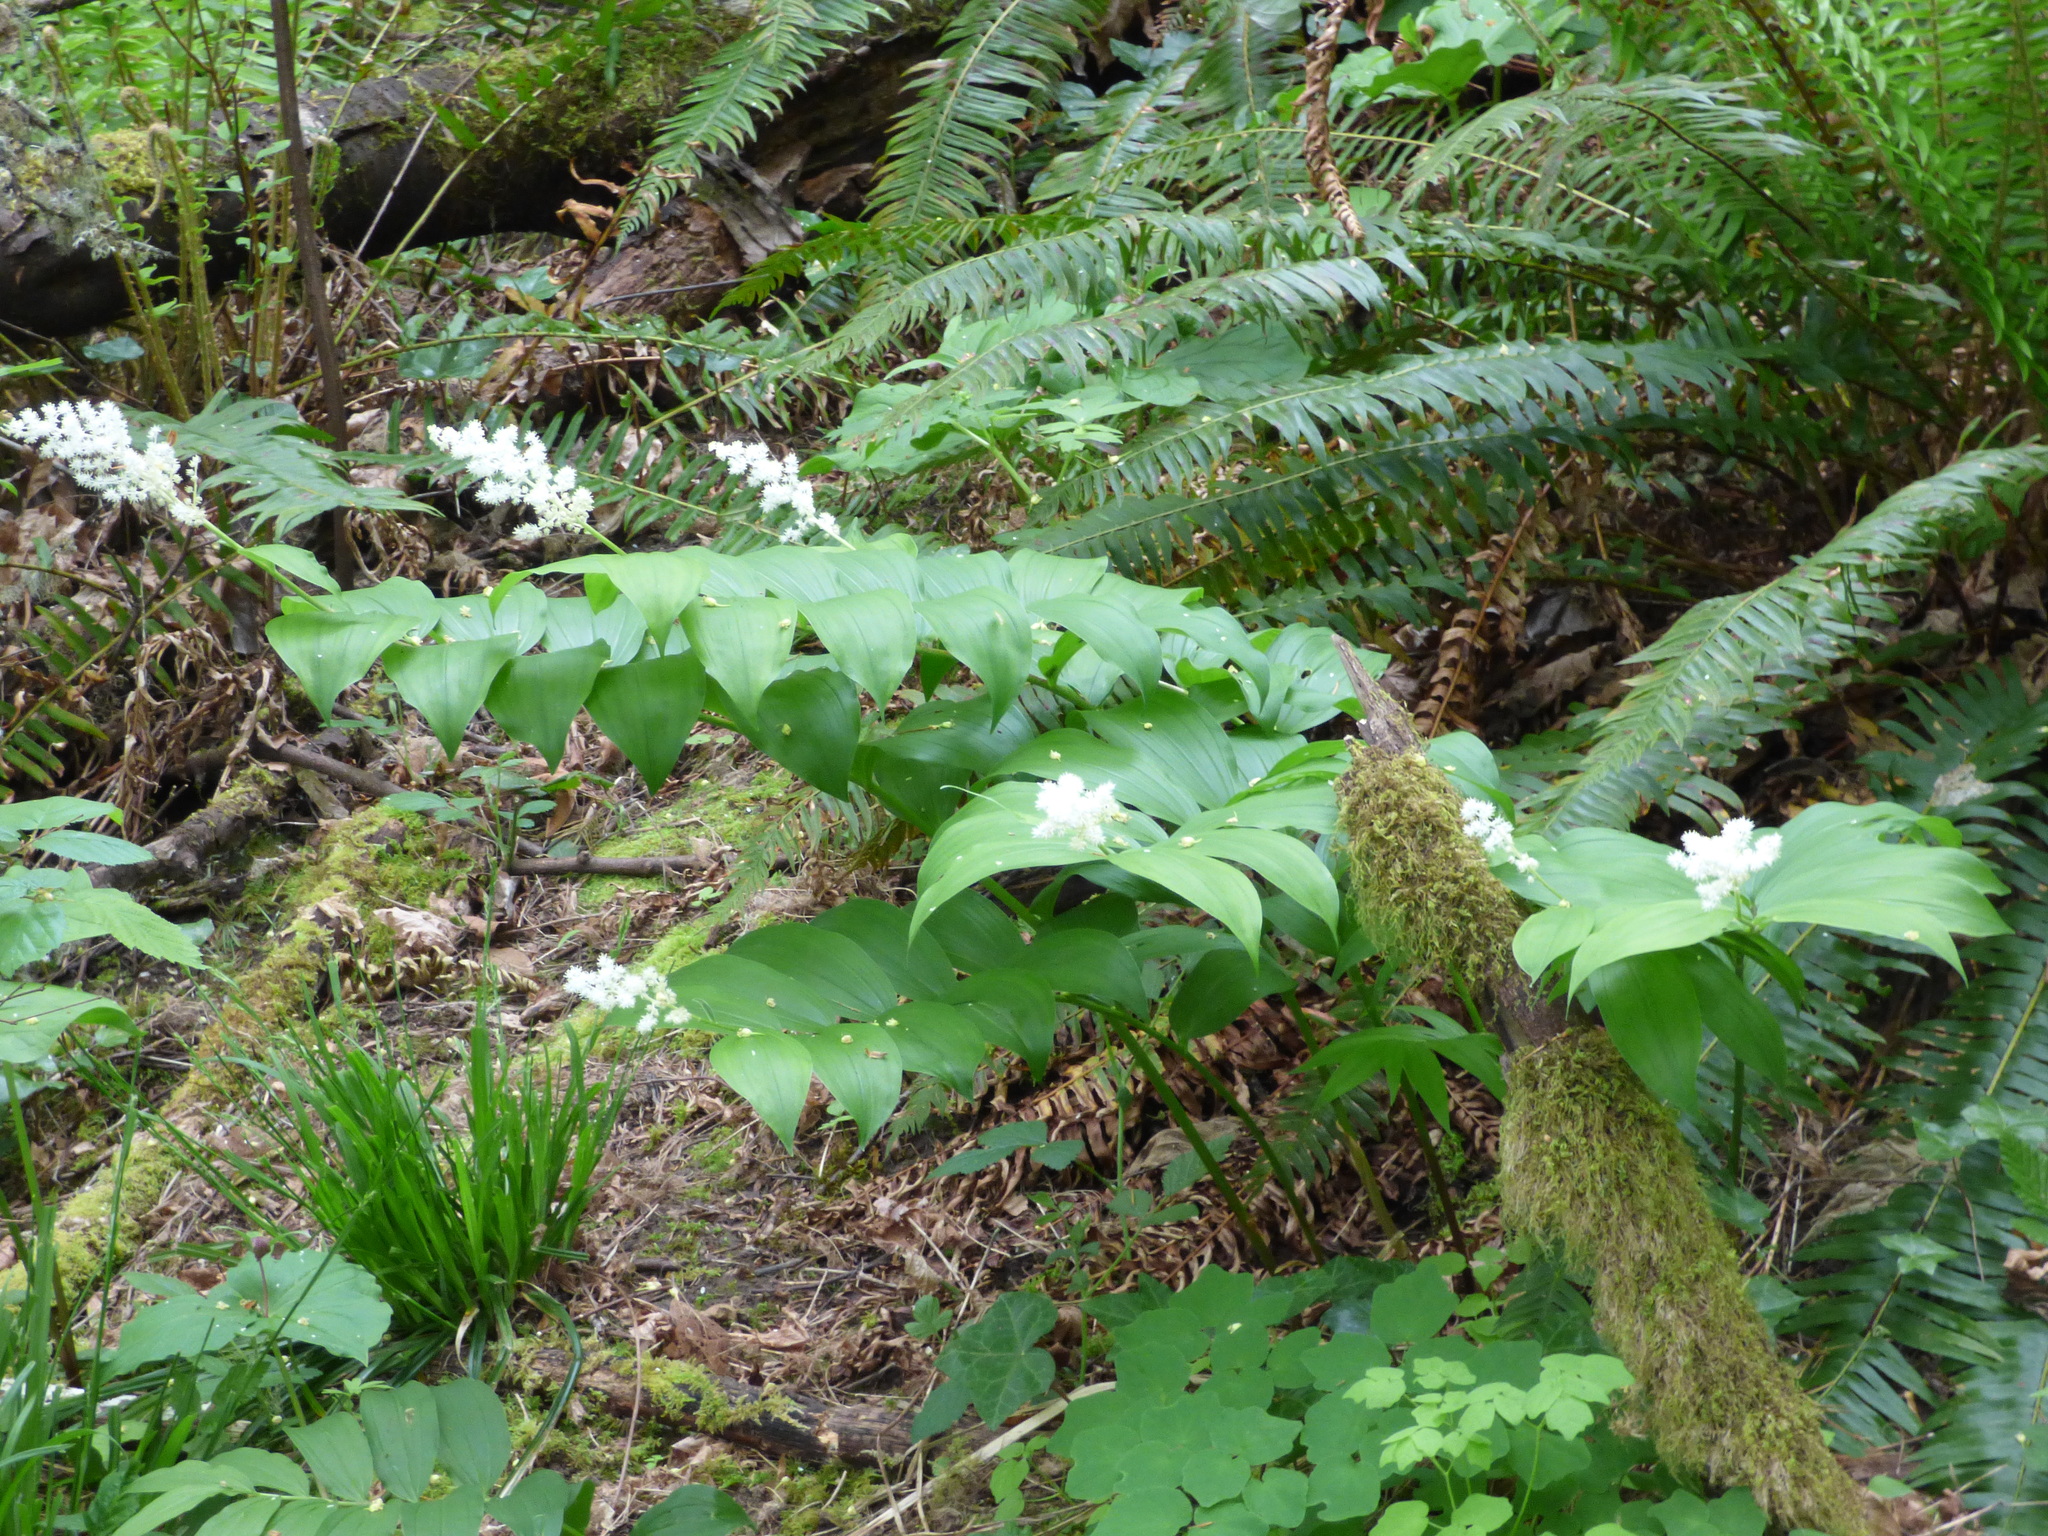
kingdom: Plantae
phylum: Tracheophyta
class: Liliopsida
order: Asparagales
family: Asparagaceae
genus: Maianthemum
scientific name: Maianthemum racemosum
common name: False spikenard
